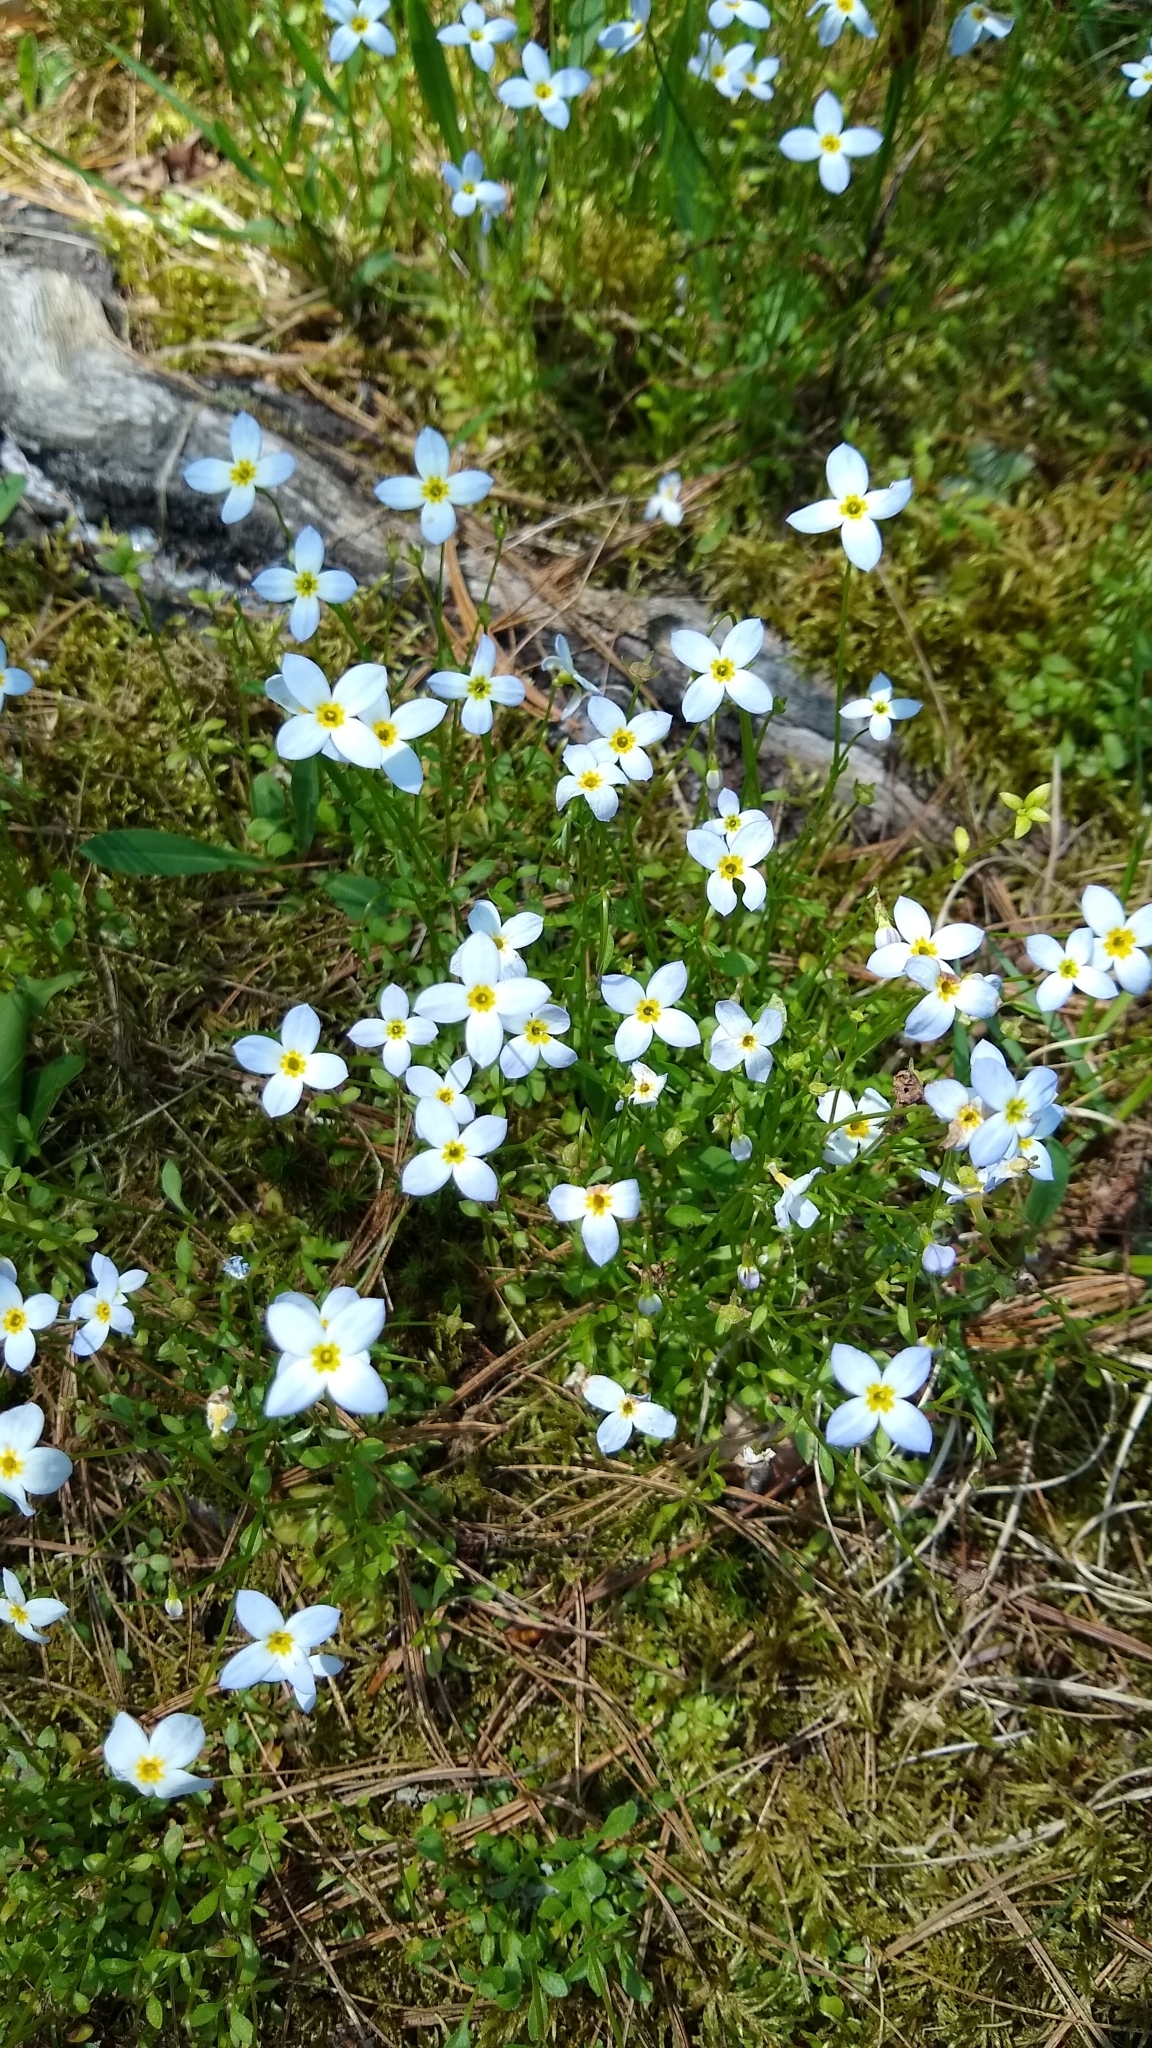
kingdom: Plantae
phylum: Tracheophyta
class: Magnoliopsida
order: Gentianales
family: Rubiaceae
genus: Houstonia
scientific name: Houstonia caerulea
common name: Bluets
